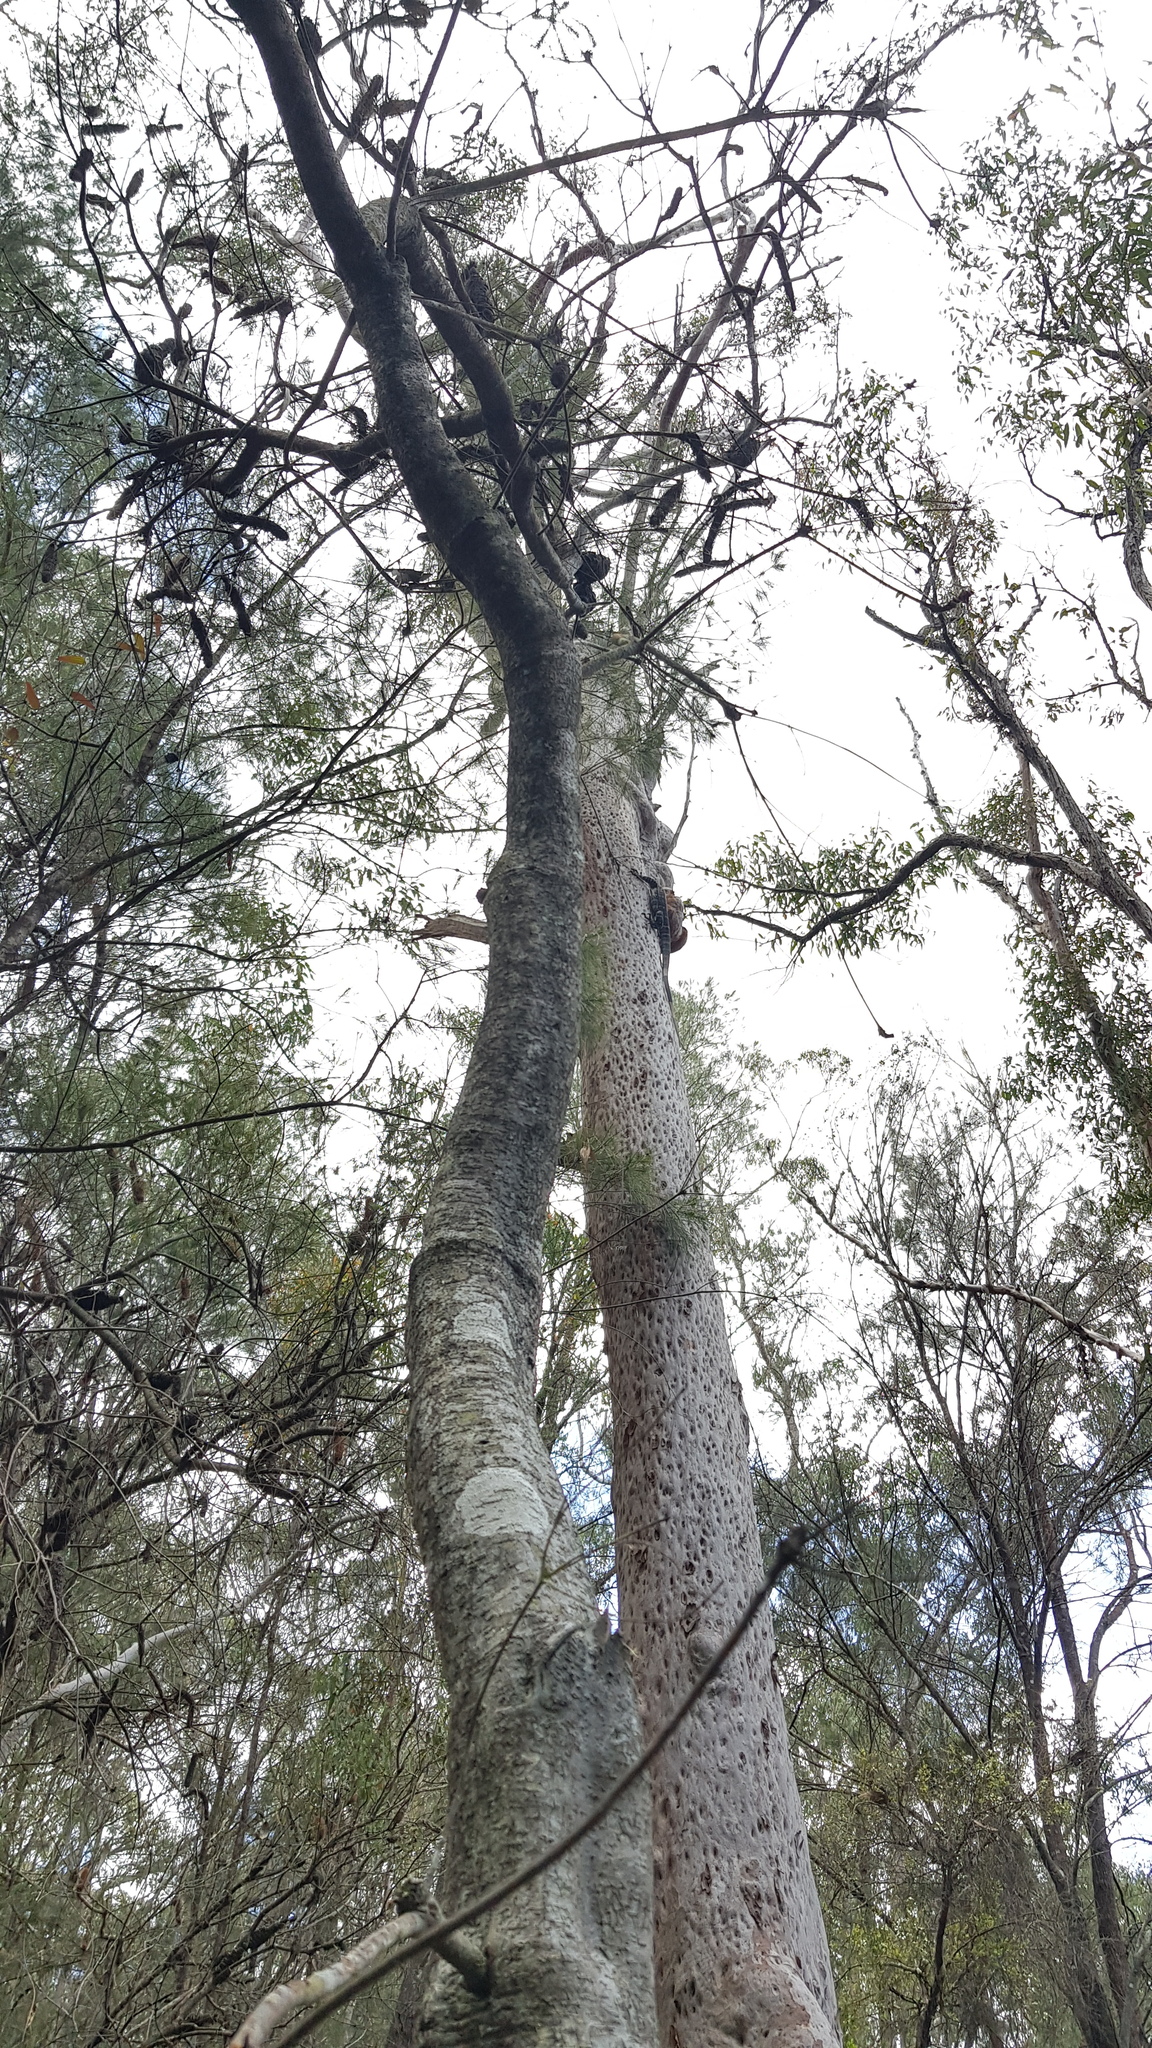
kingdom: Animalia
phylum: Chordata
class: Squamata
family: Varanidae
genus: Varanus
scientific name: Varanus varius
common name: Lace monitor
